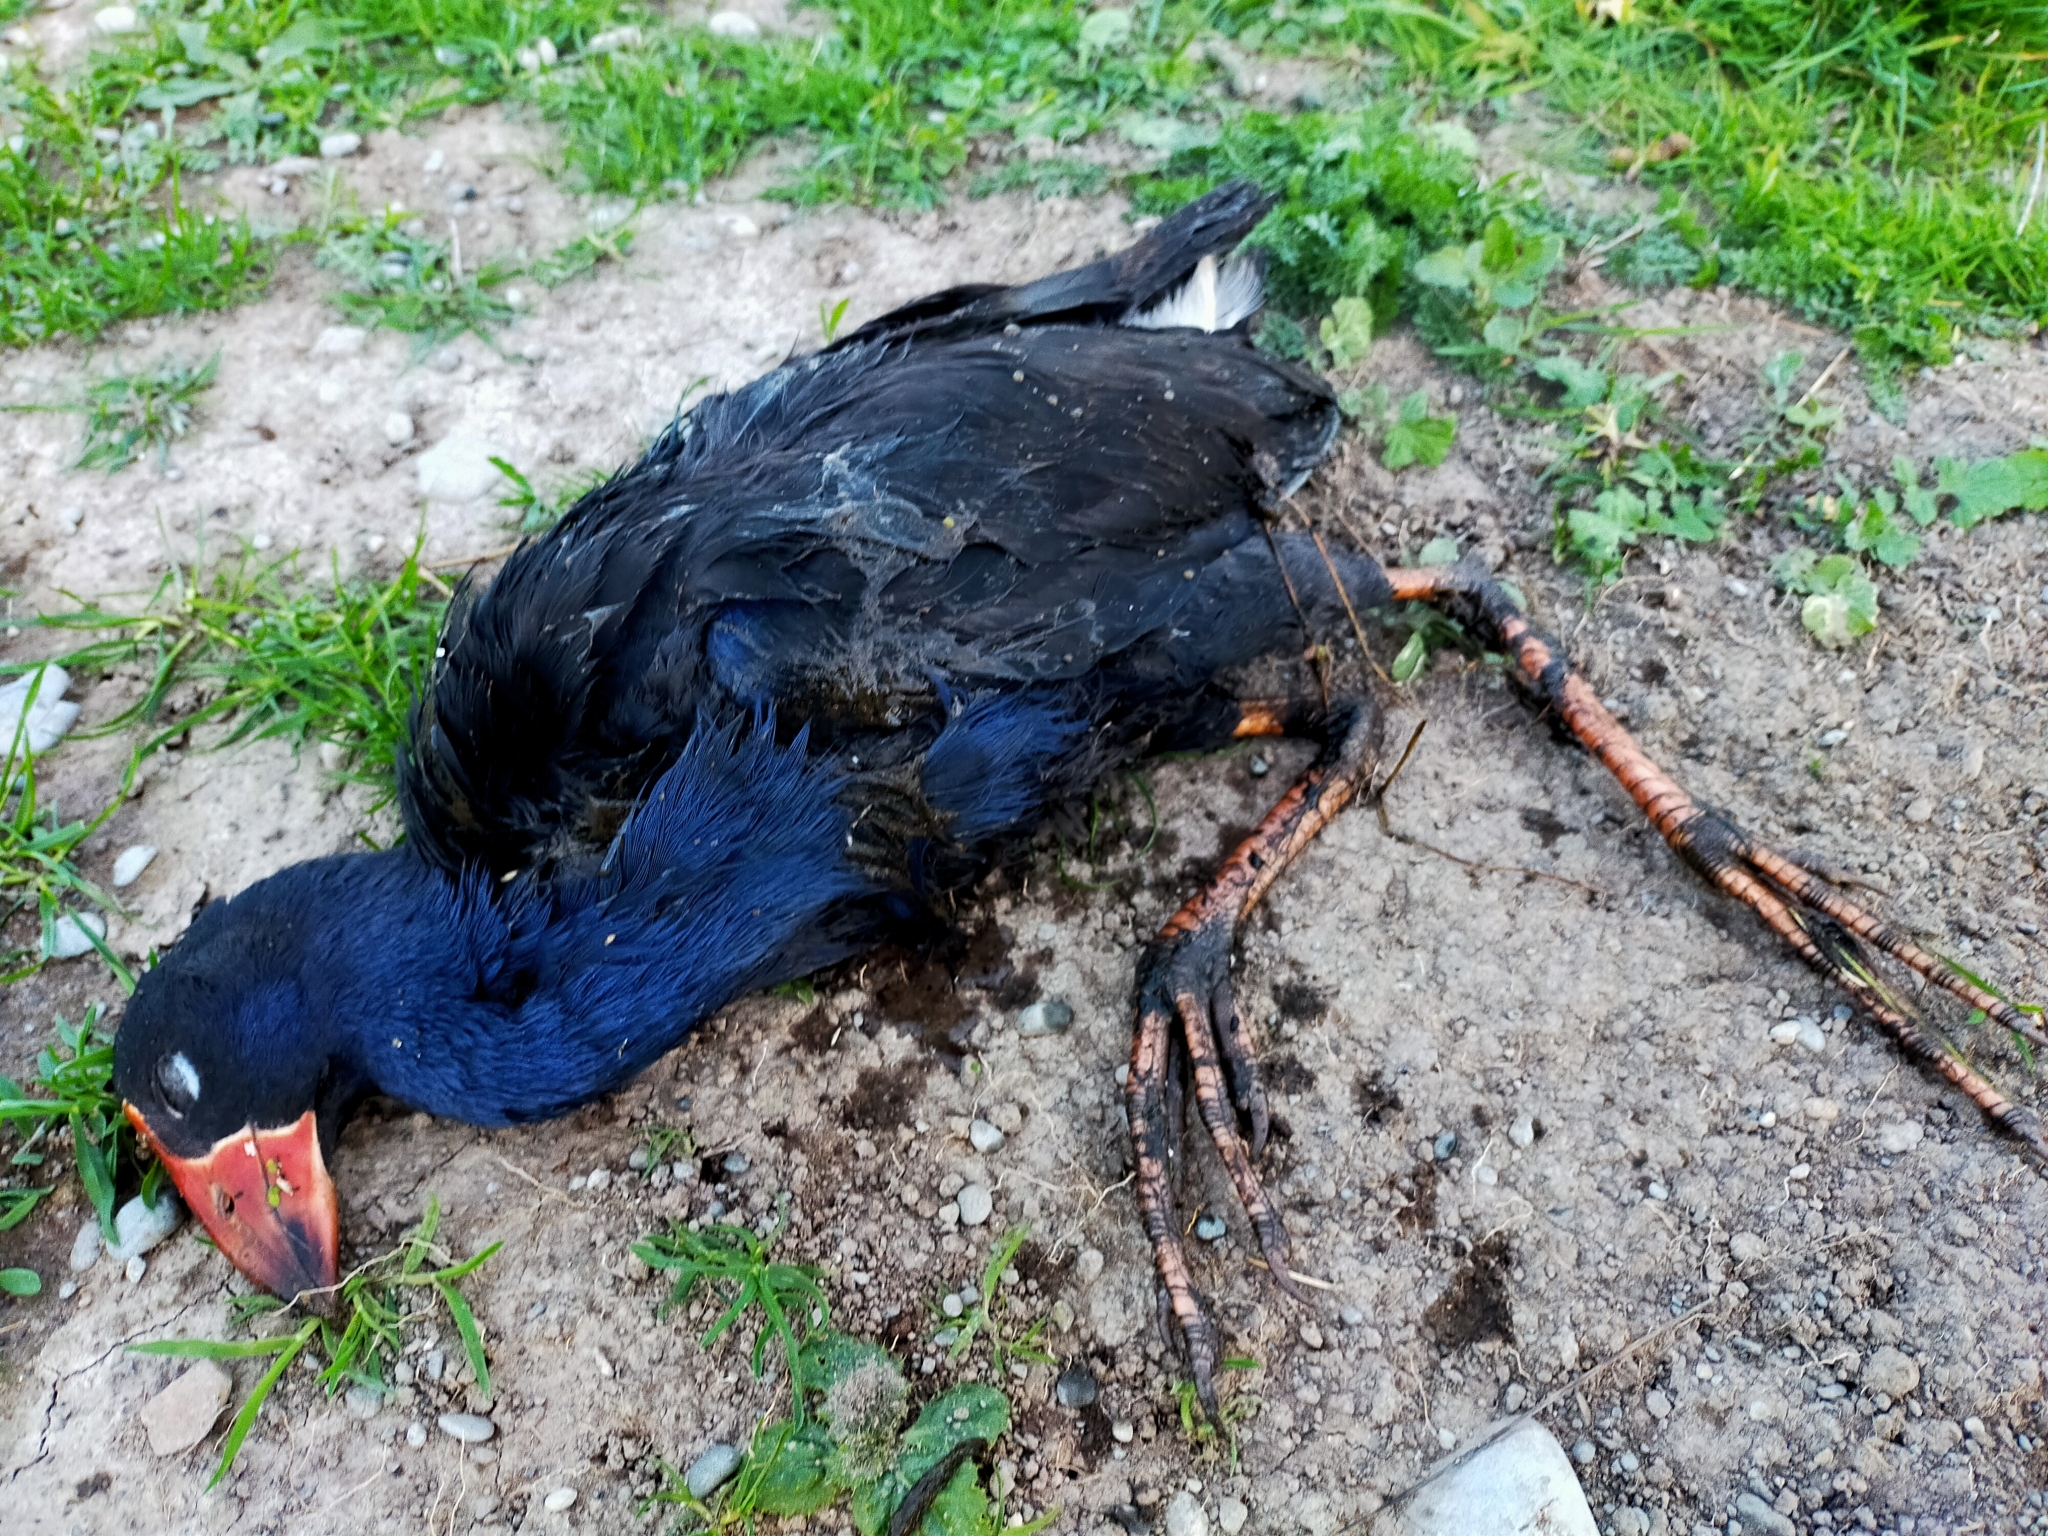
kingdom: Animalia
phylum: Chordata
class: Aves
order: Gruiformes
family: Rallidae
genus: Porphyrio
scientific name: Porphyrio melanotus
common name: Australasian swamphen
